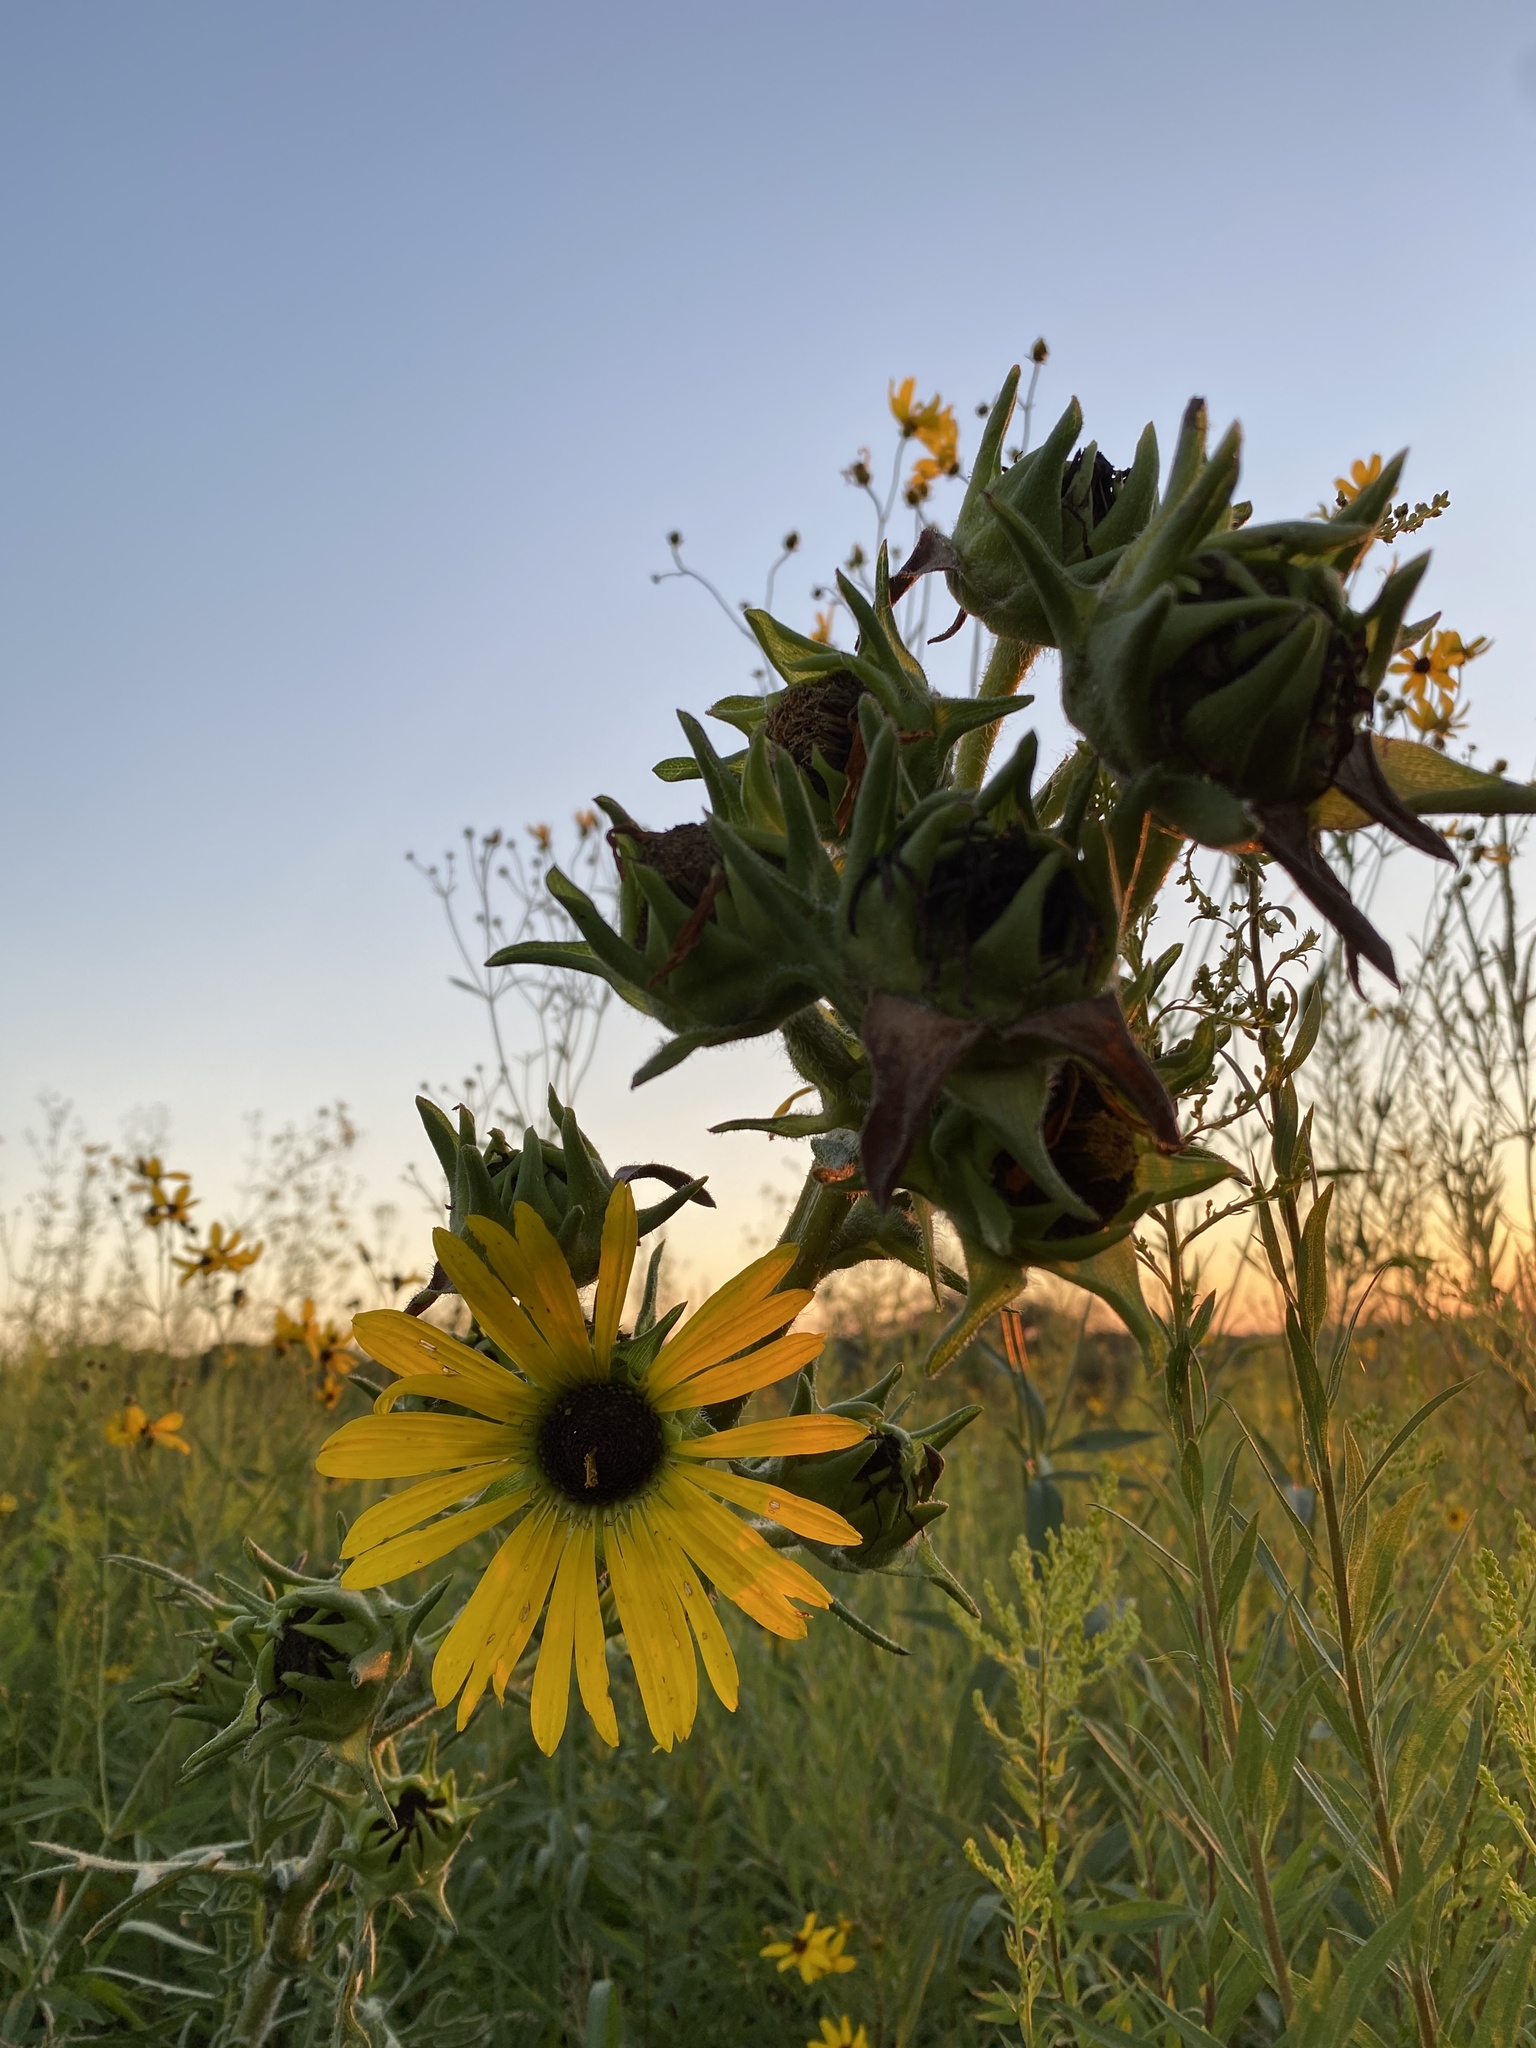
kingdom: Plantae
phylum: Tracheophyta
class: Magnoliopsida
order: Asterales
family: Asteraceae
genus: Silphium
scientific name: Silphium laciniatum
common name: Polarplant
